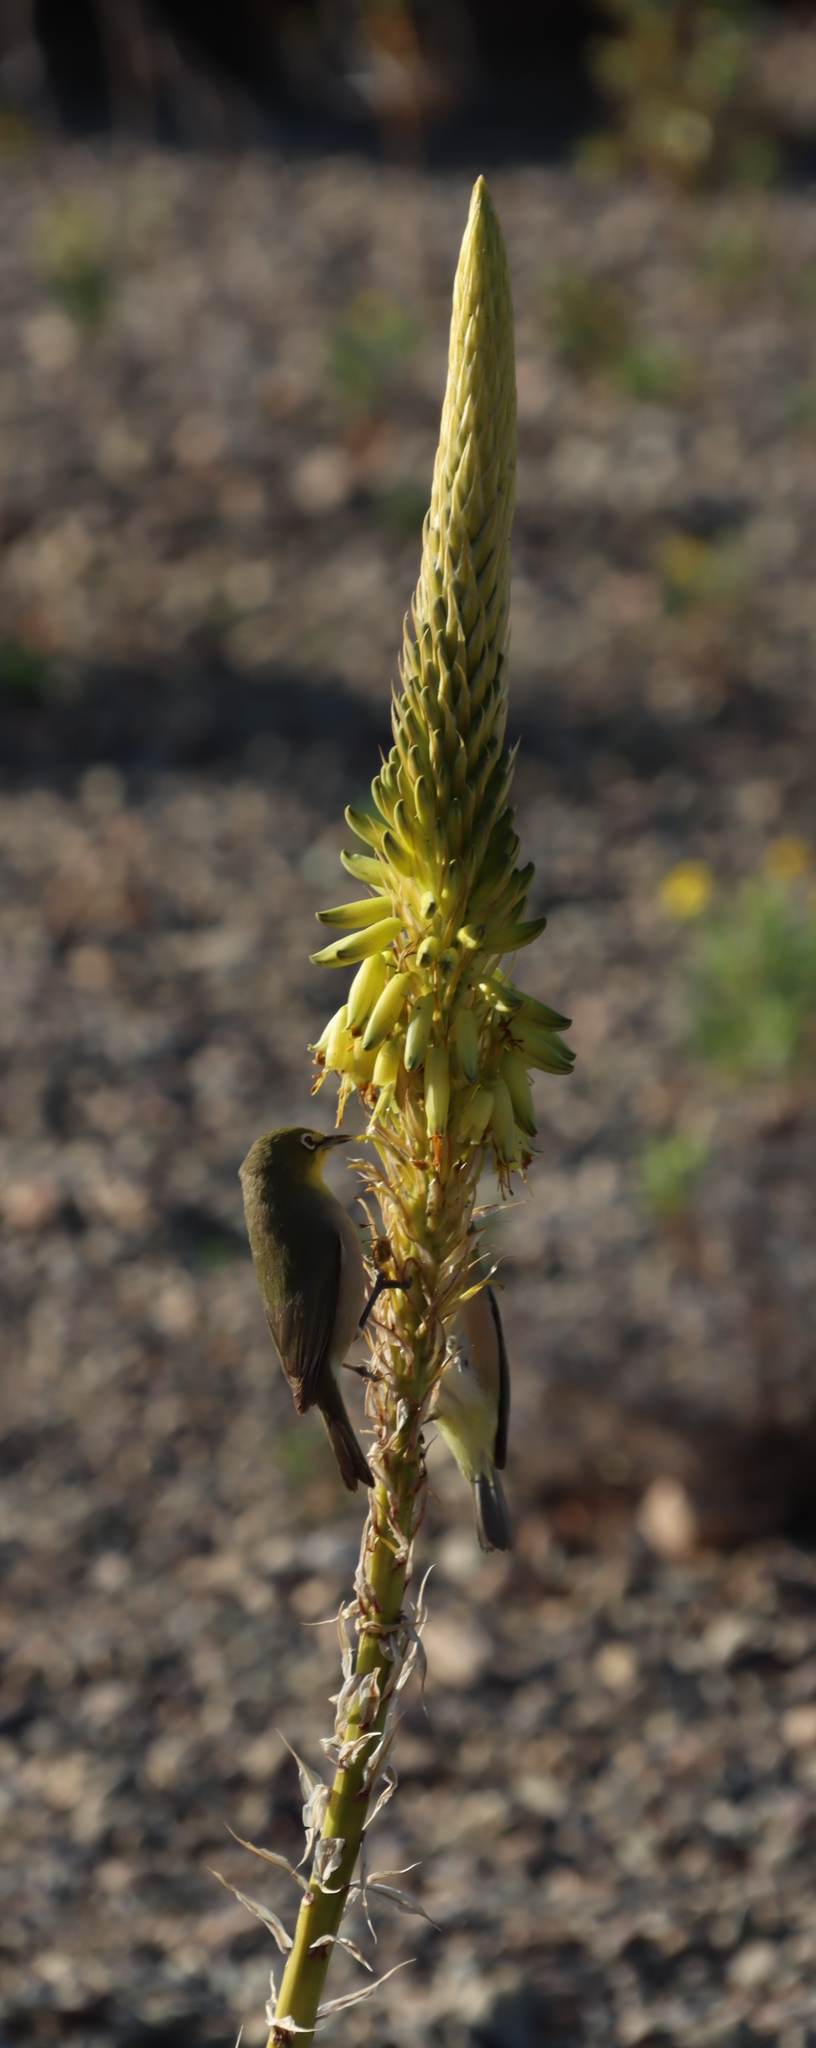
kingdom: Animalia
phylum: Chordata
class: Aves
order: Passeriformes
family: Zosteropidae
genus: Zosterops
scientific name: Zosterops pallidus
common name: Orange river white-eye
